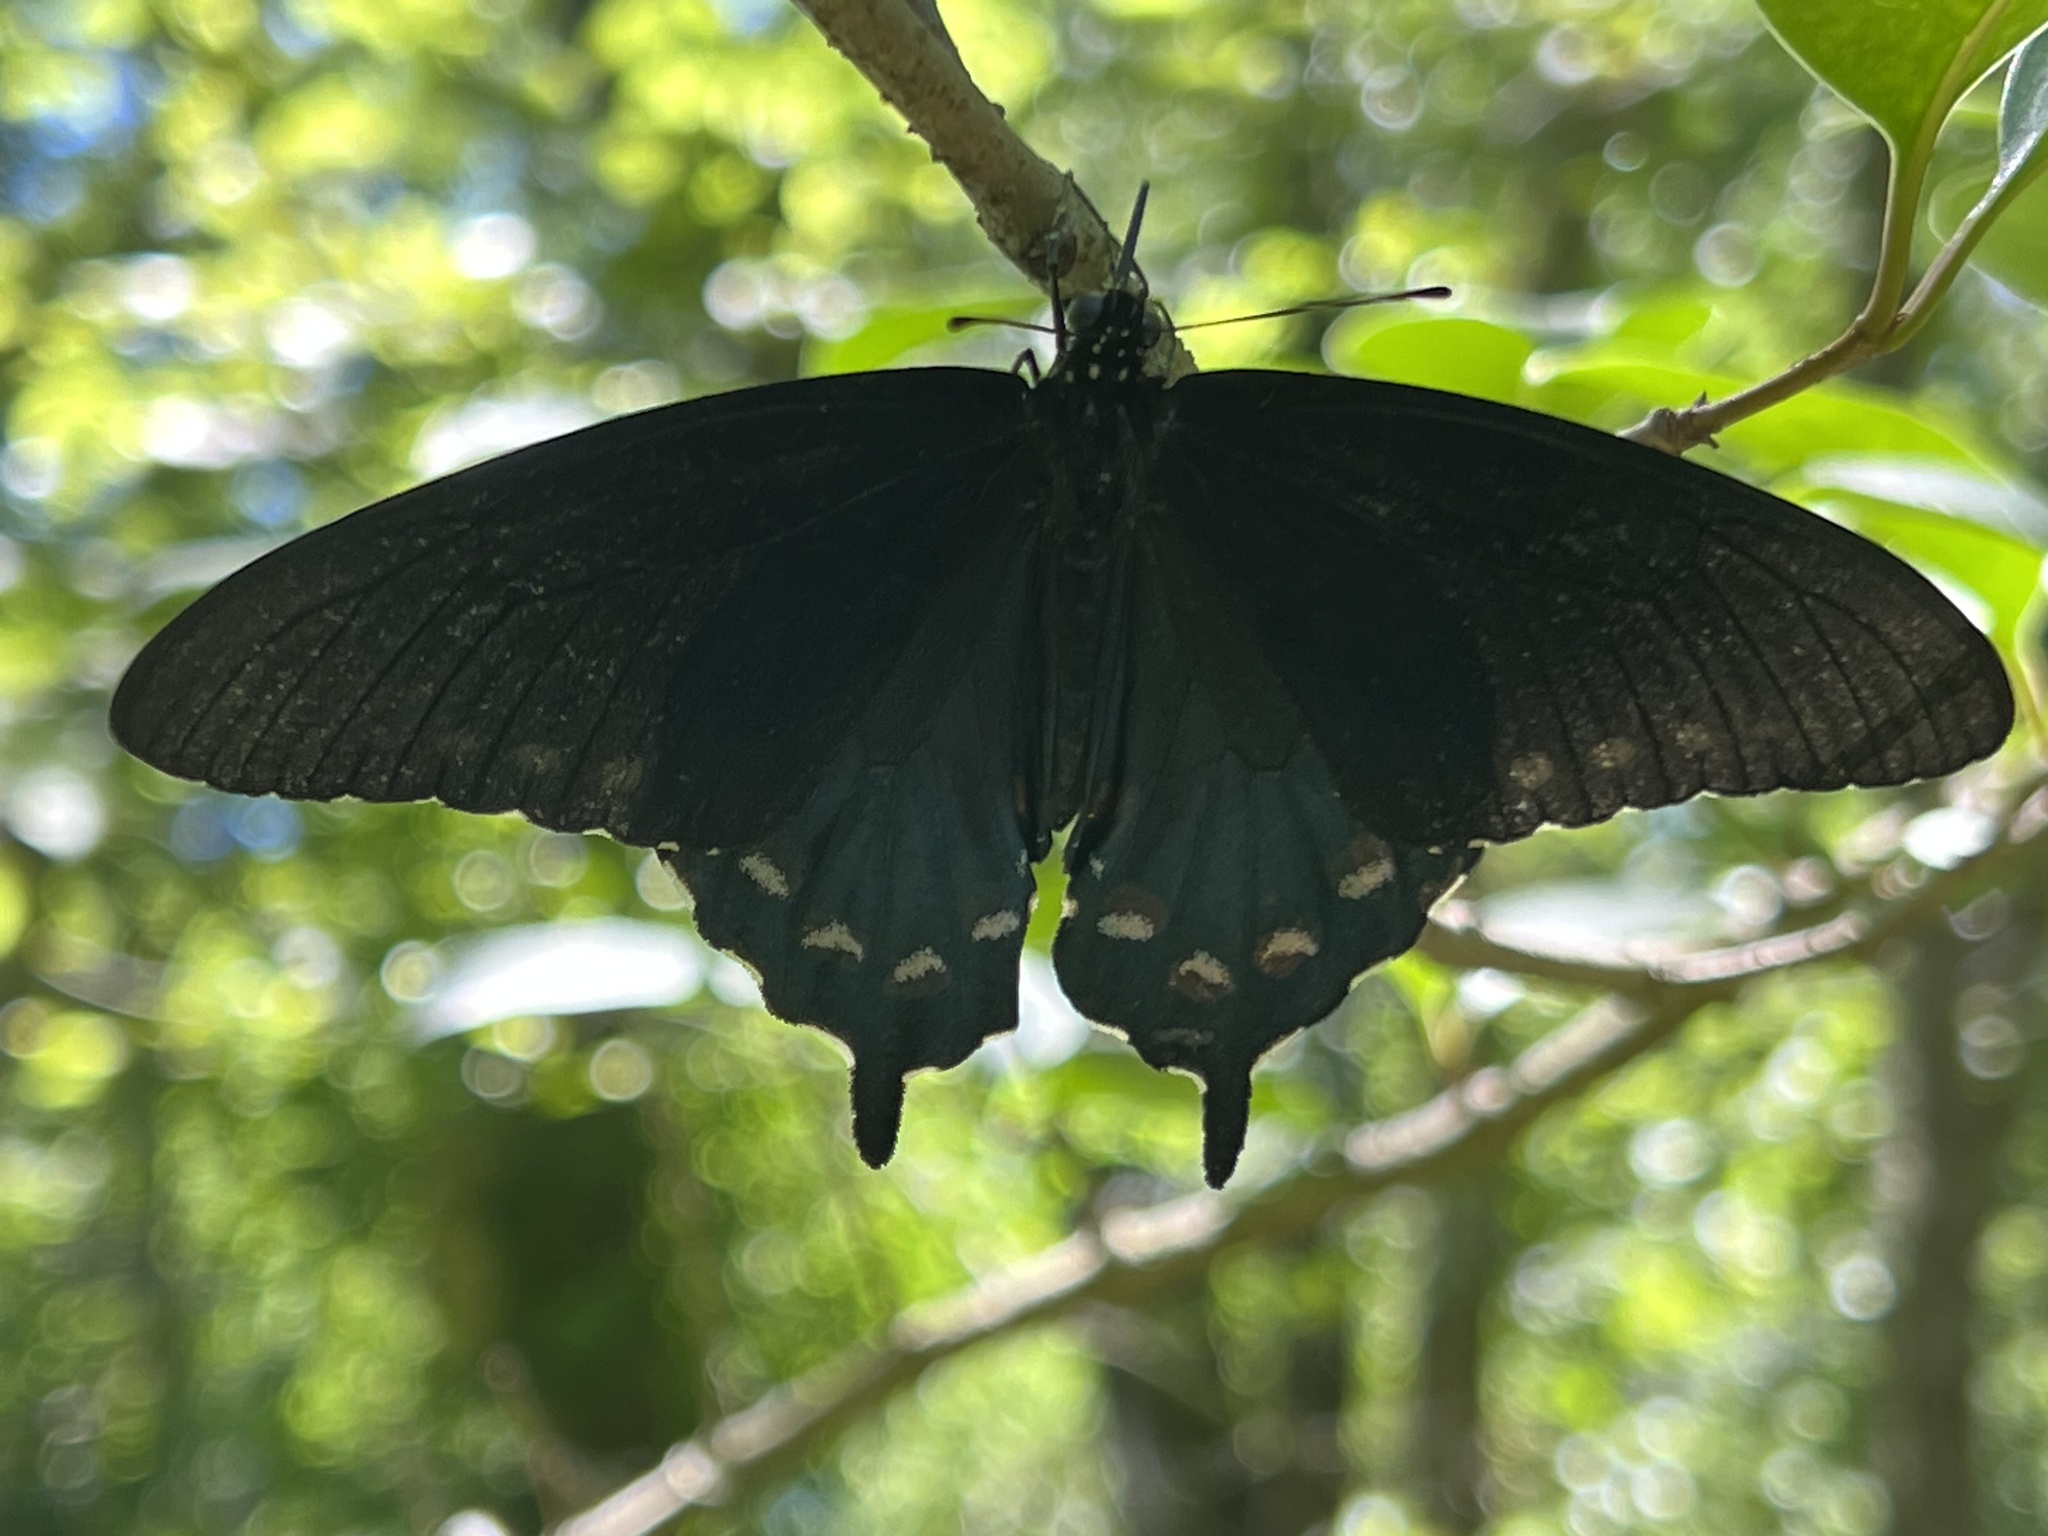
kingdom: Animalia
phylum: Arthropoda
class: Insecta
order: Lepidoptera
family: Papilionidae
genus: Battus
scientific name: Battus philenor
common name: Pipevine swallowtail
